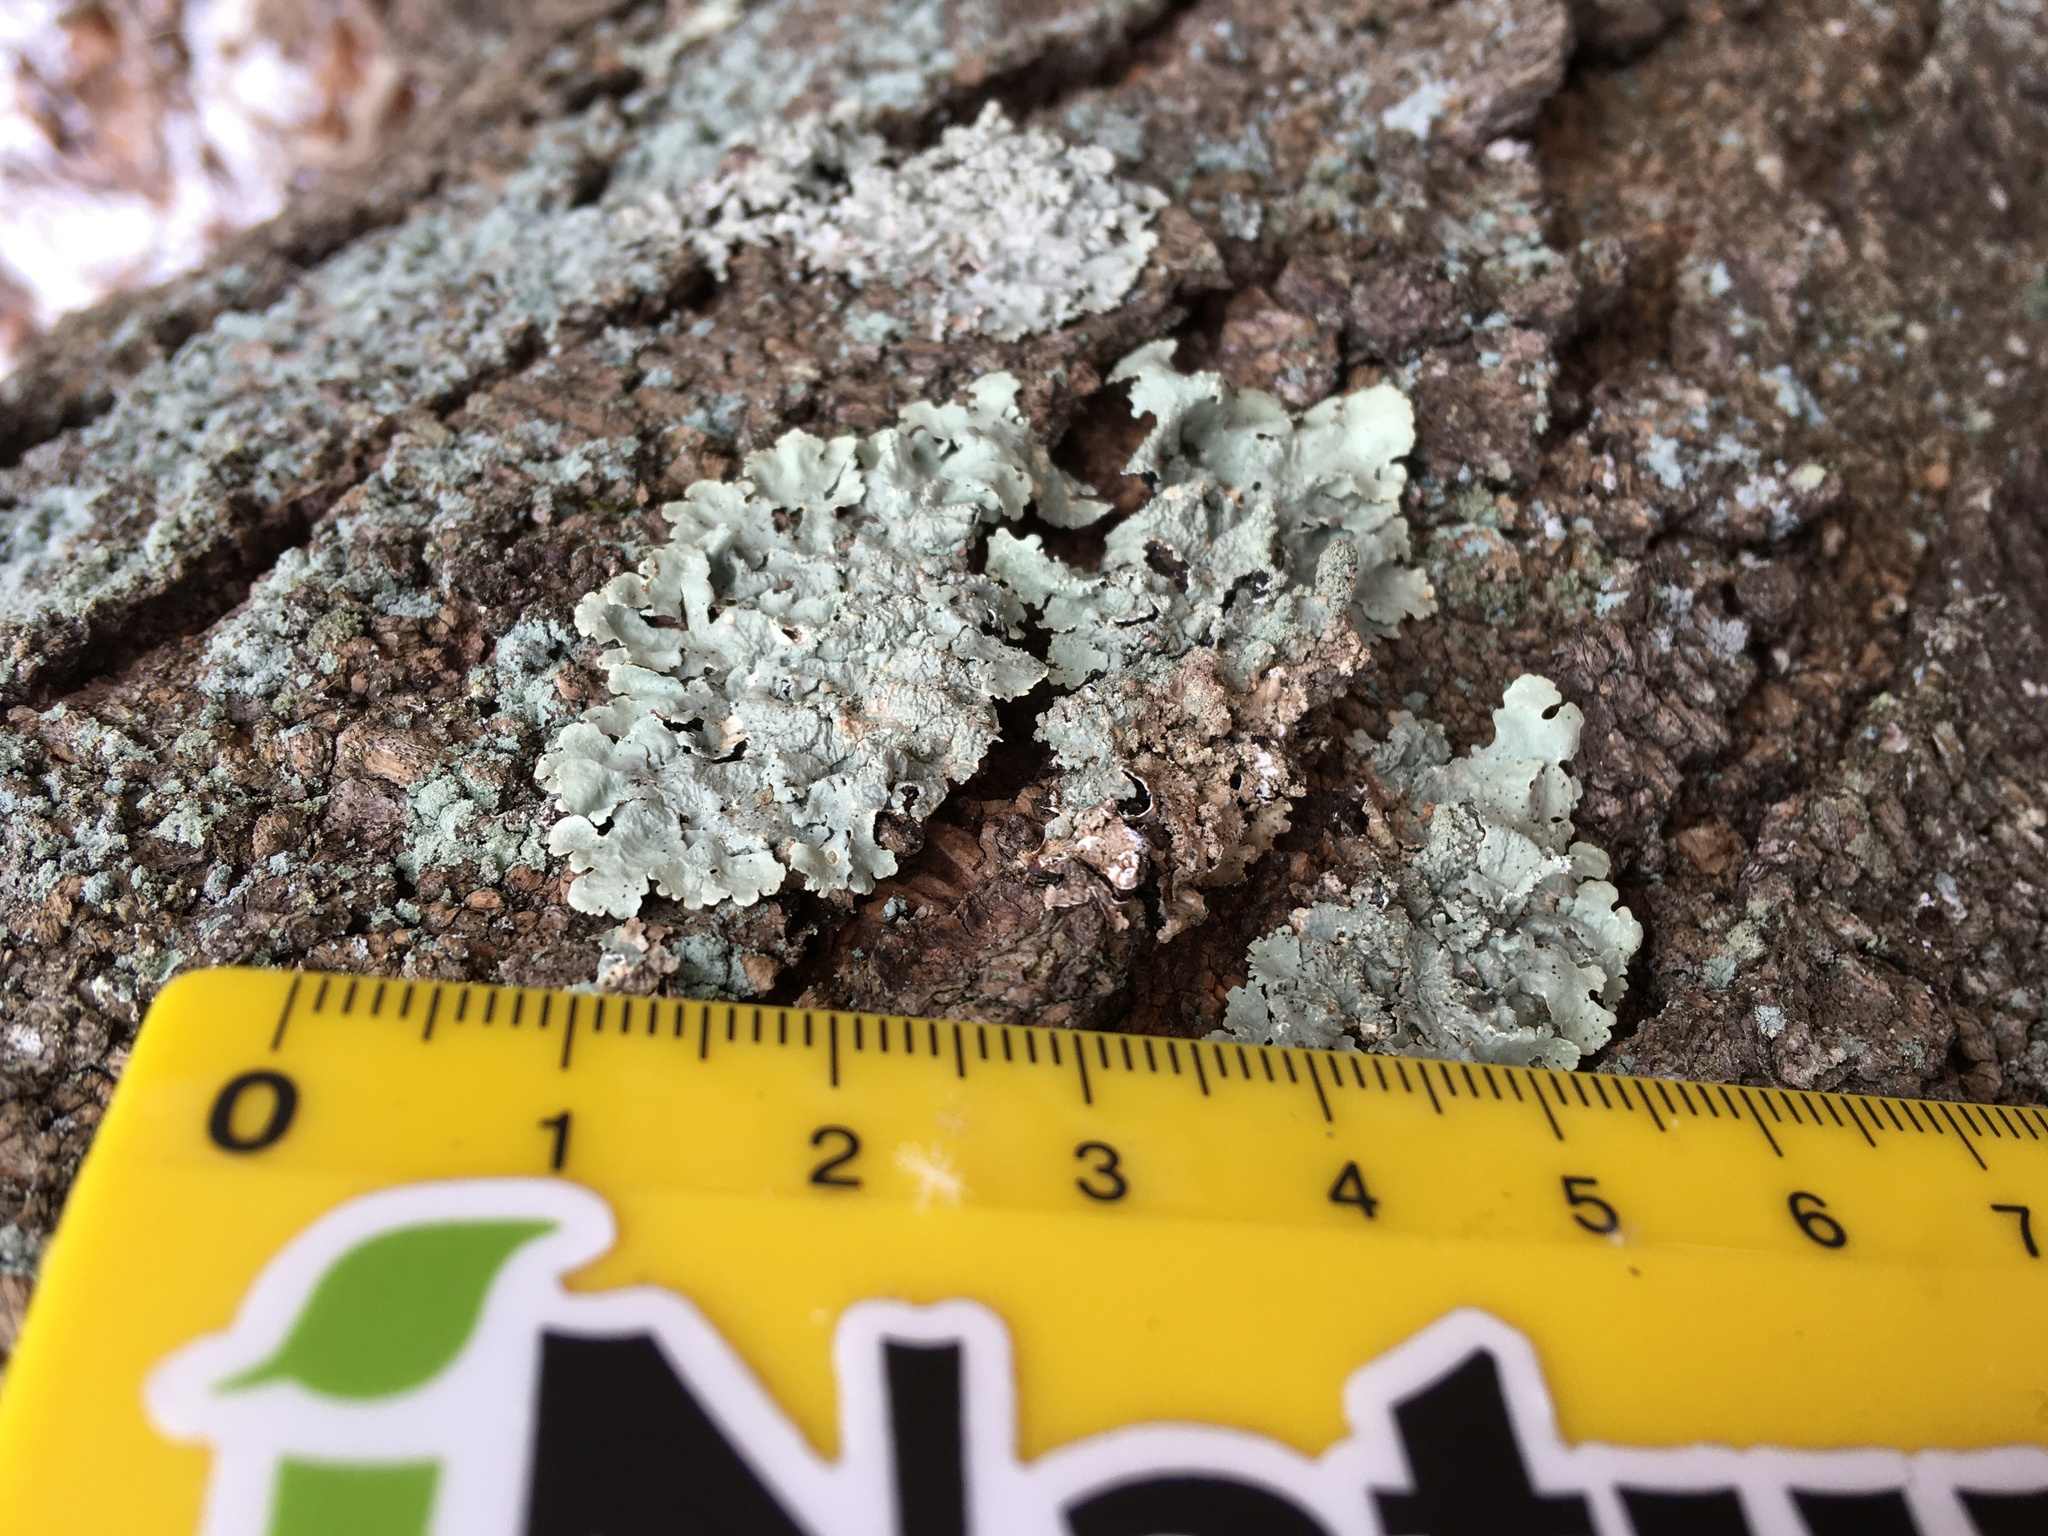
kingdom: Fungi
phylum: Ascomycota
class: Lecanoromycetes
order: Lecanorales
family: Parmeliaceae
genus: Flavoparmelia
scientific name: Flavoparmelia caperata
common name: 40-mile per hour lichen
